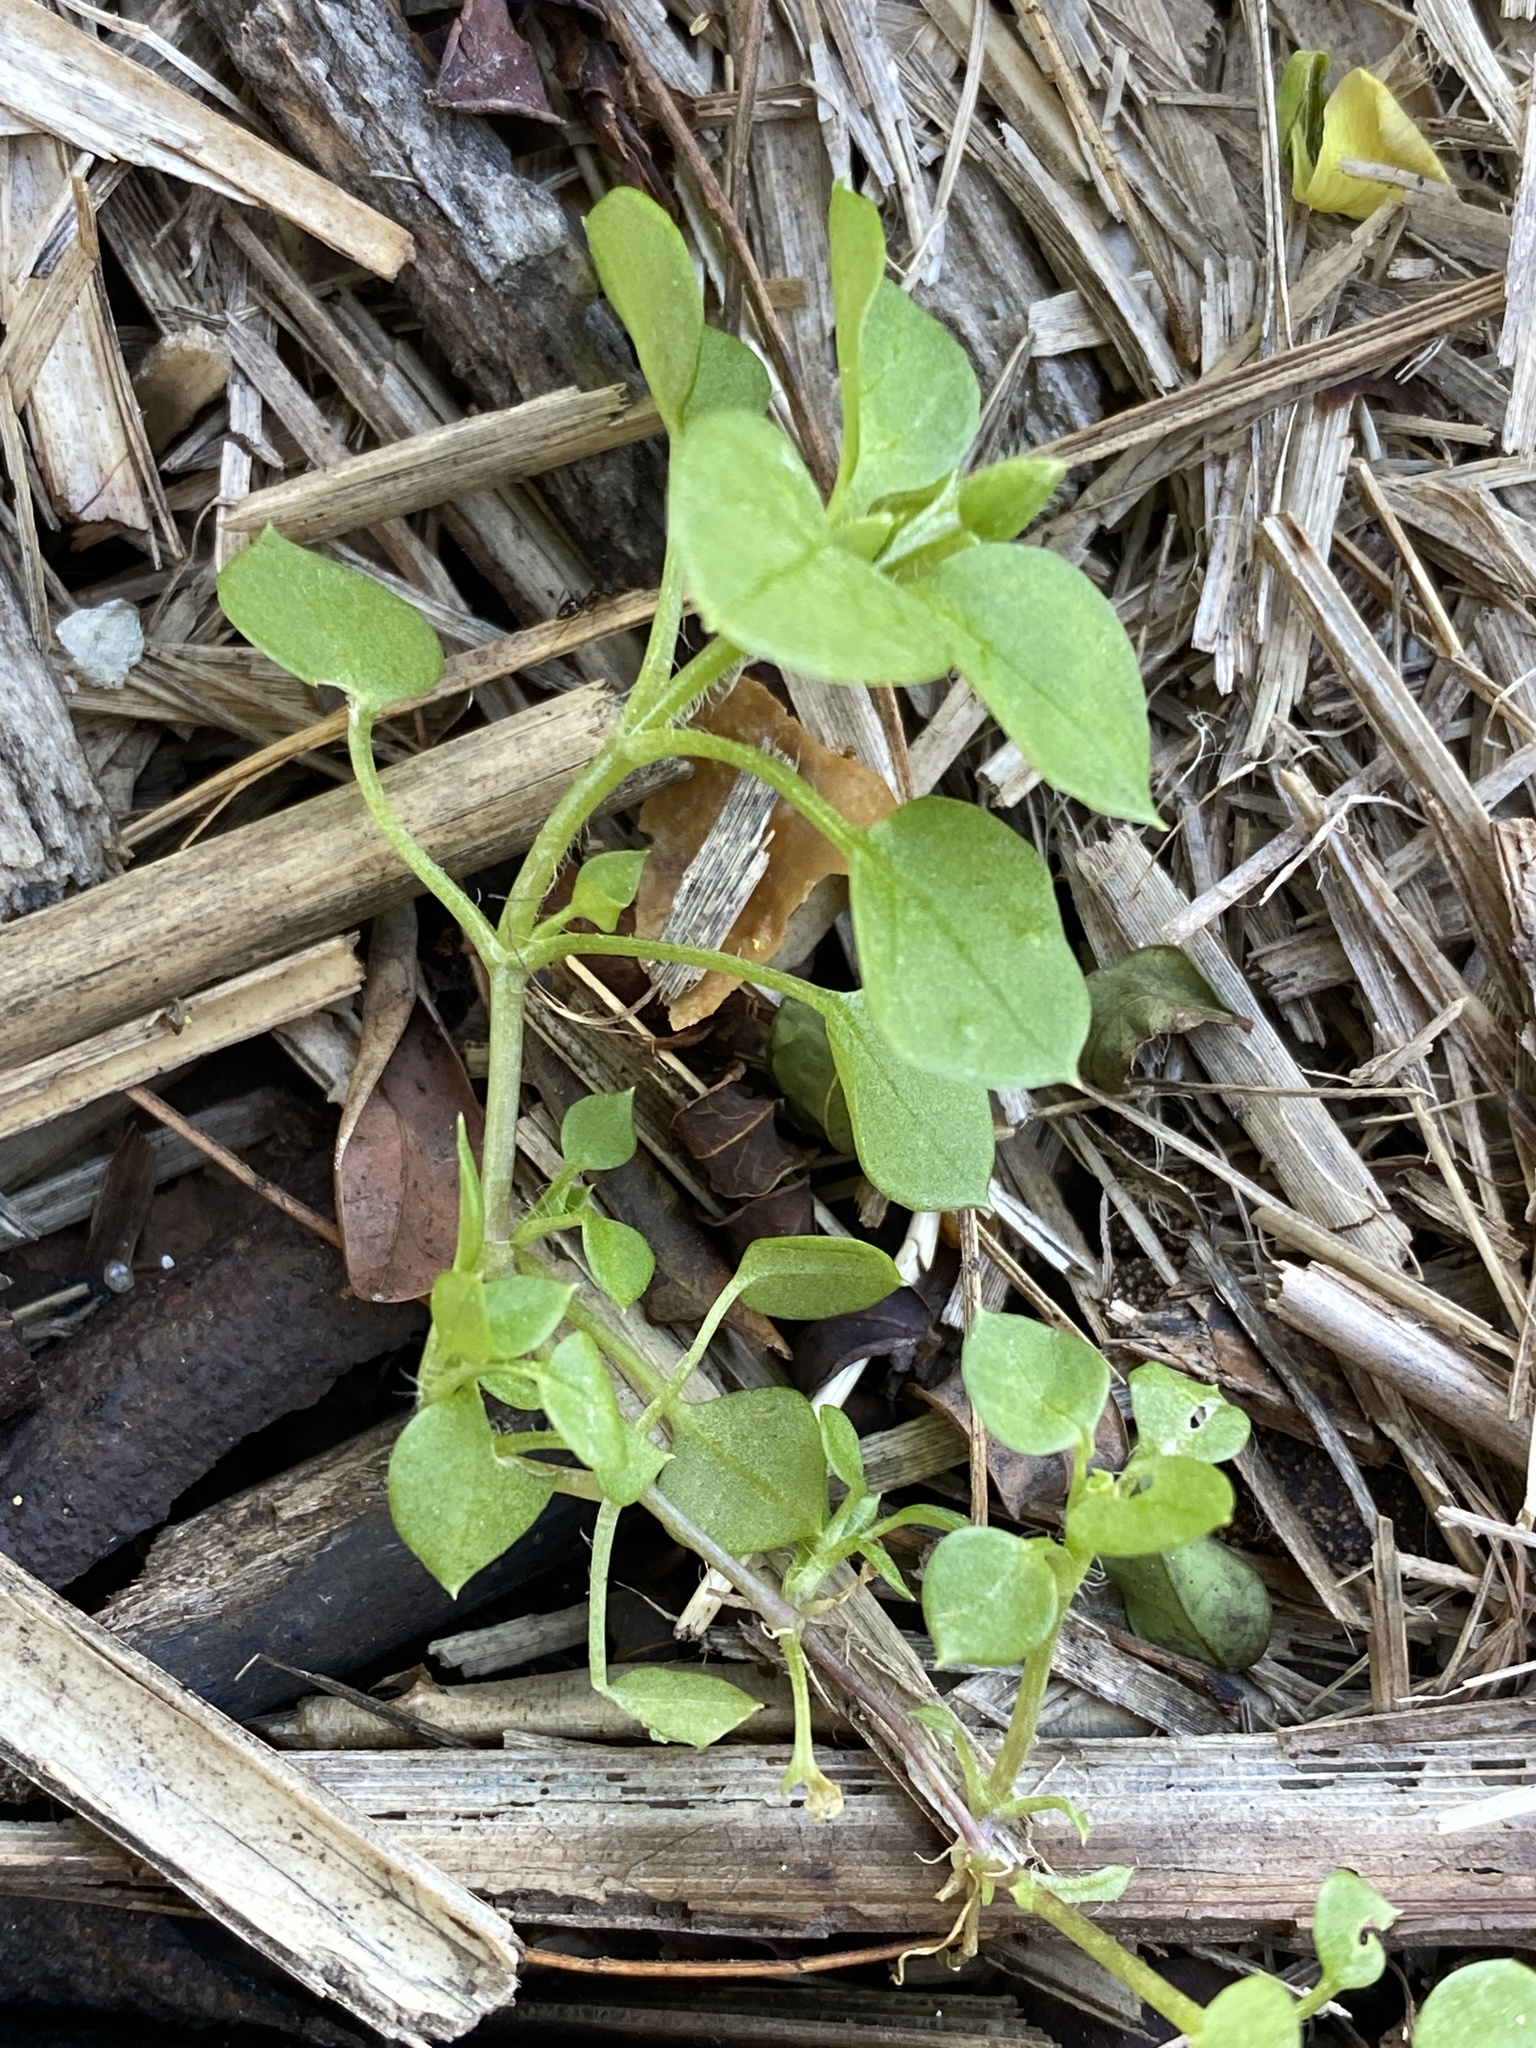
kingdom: Plantae
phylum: Tracheophyta
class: Magnoliopsida
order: Caryophyllales
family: Caryophyllaceae
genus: Stellaria
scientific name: Stellaria media
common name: Common chickweed
